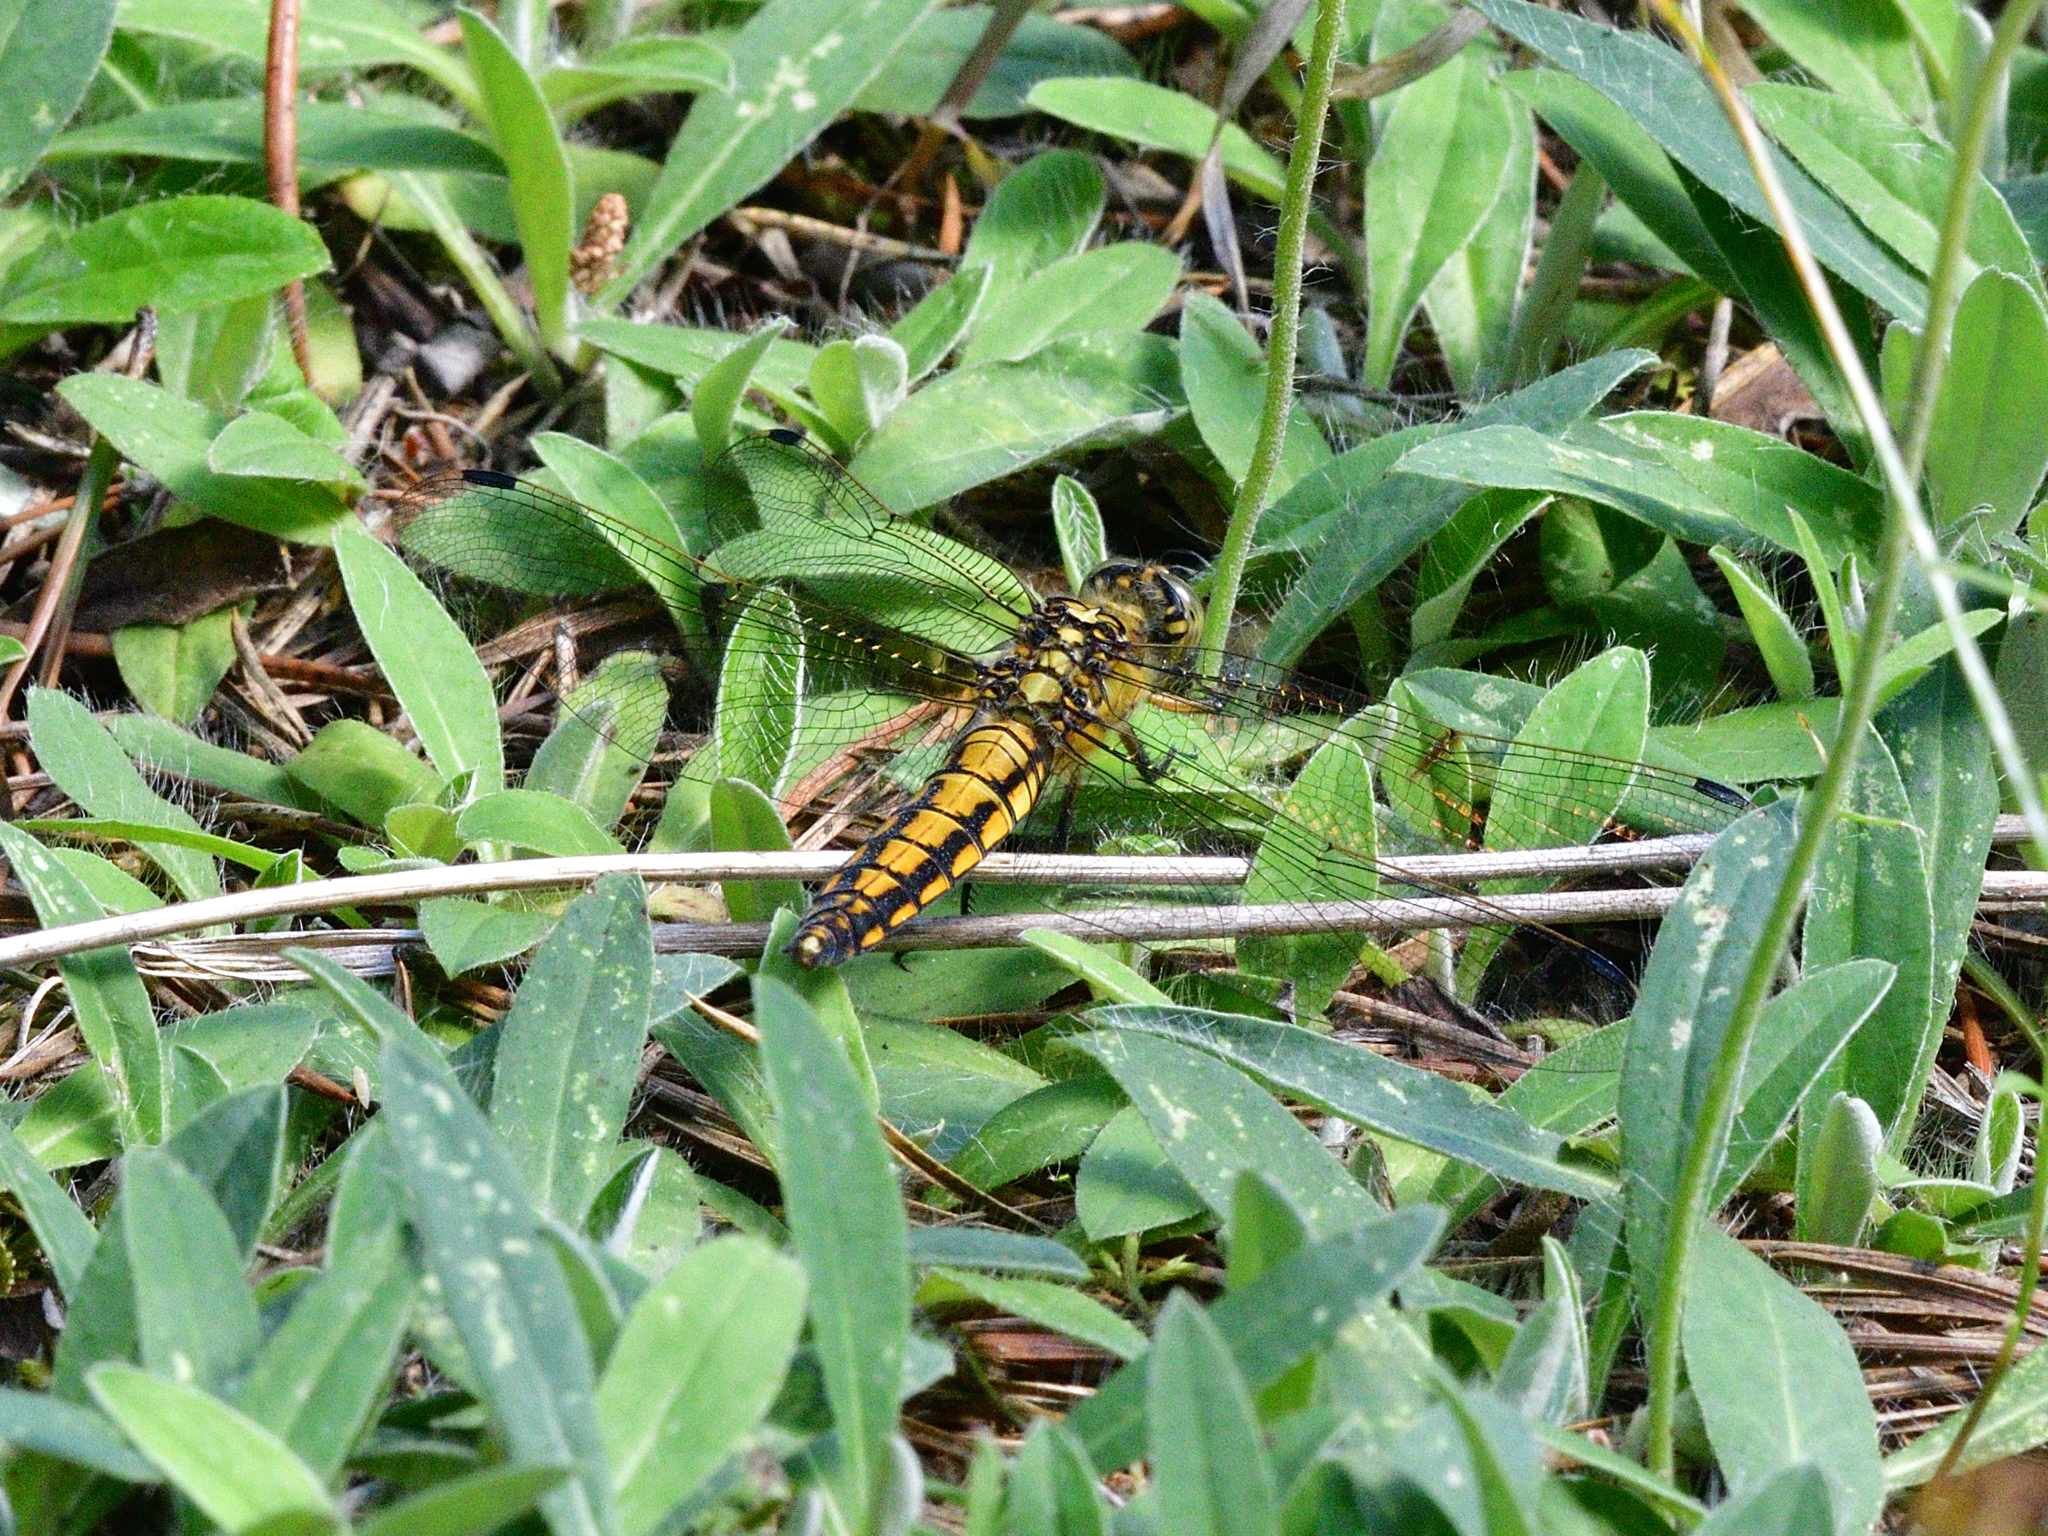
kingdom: Animalia
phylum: Arthropoda
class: Insecta
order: Odonata
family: Libellulidae
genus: Orthetrum
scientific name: Orthetrum cancellatum
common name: Black-tailed skimmer
